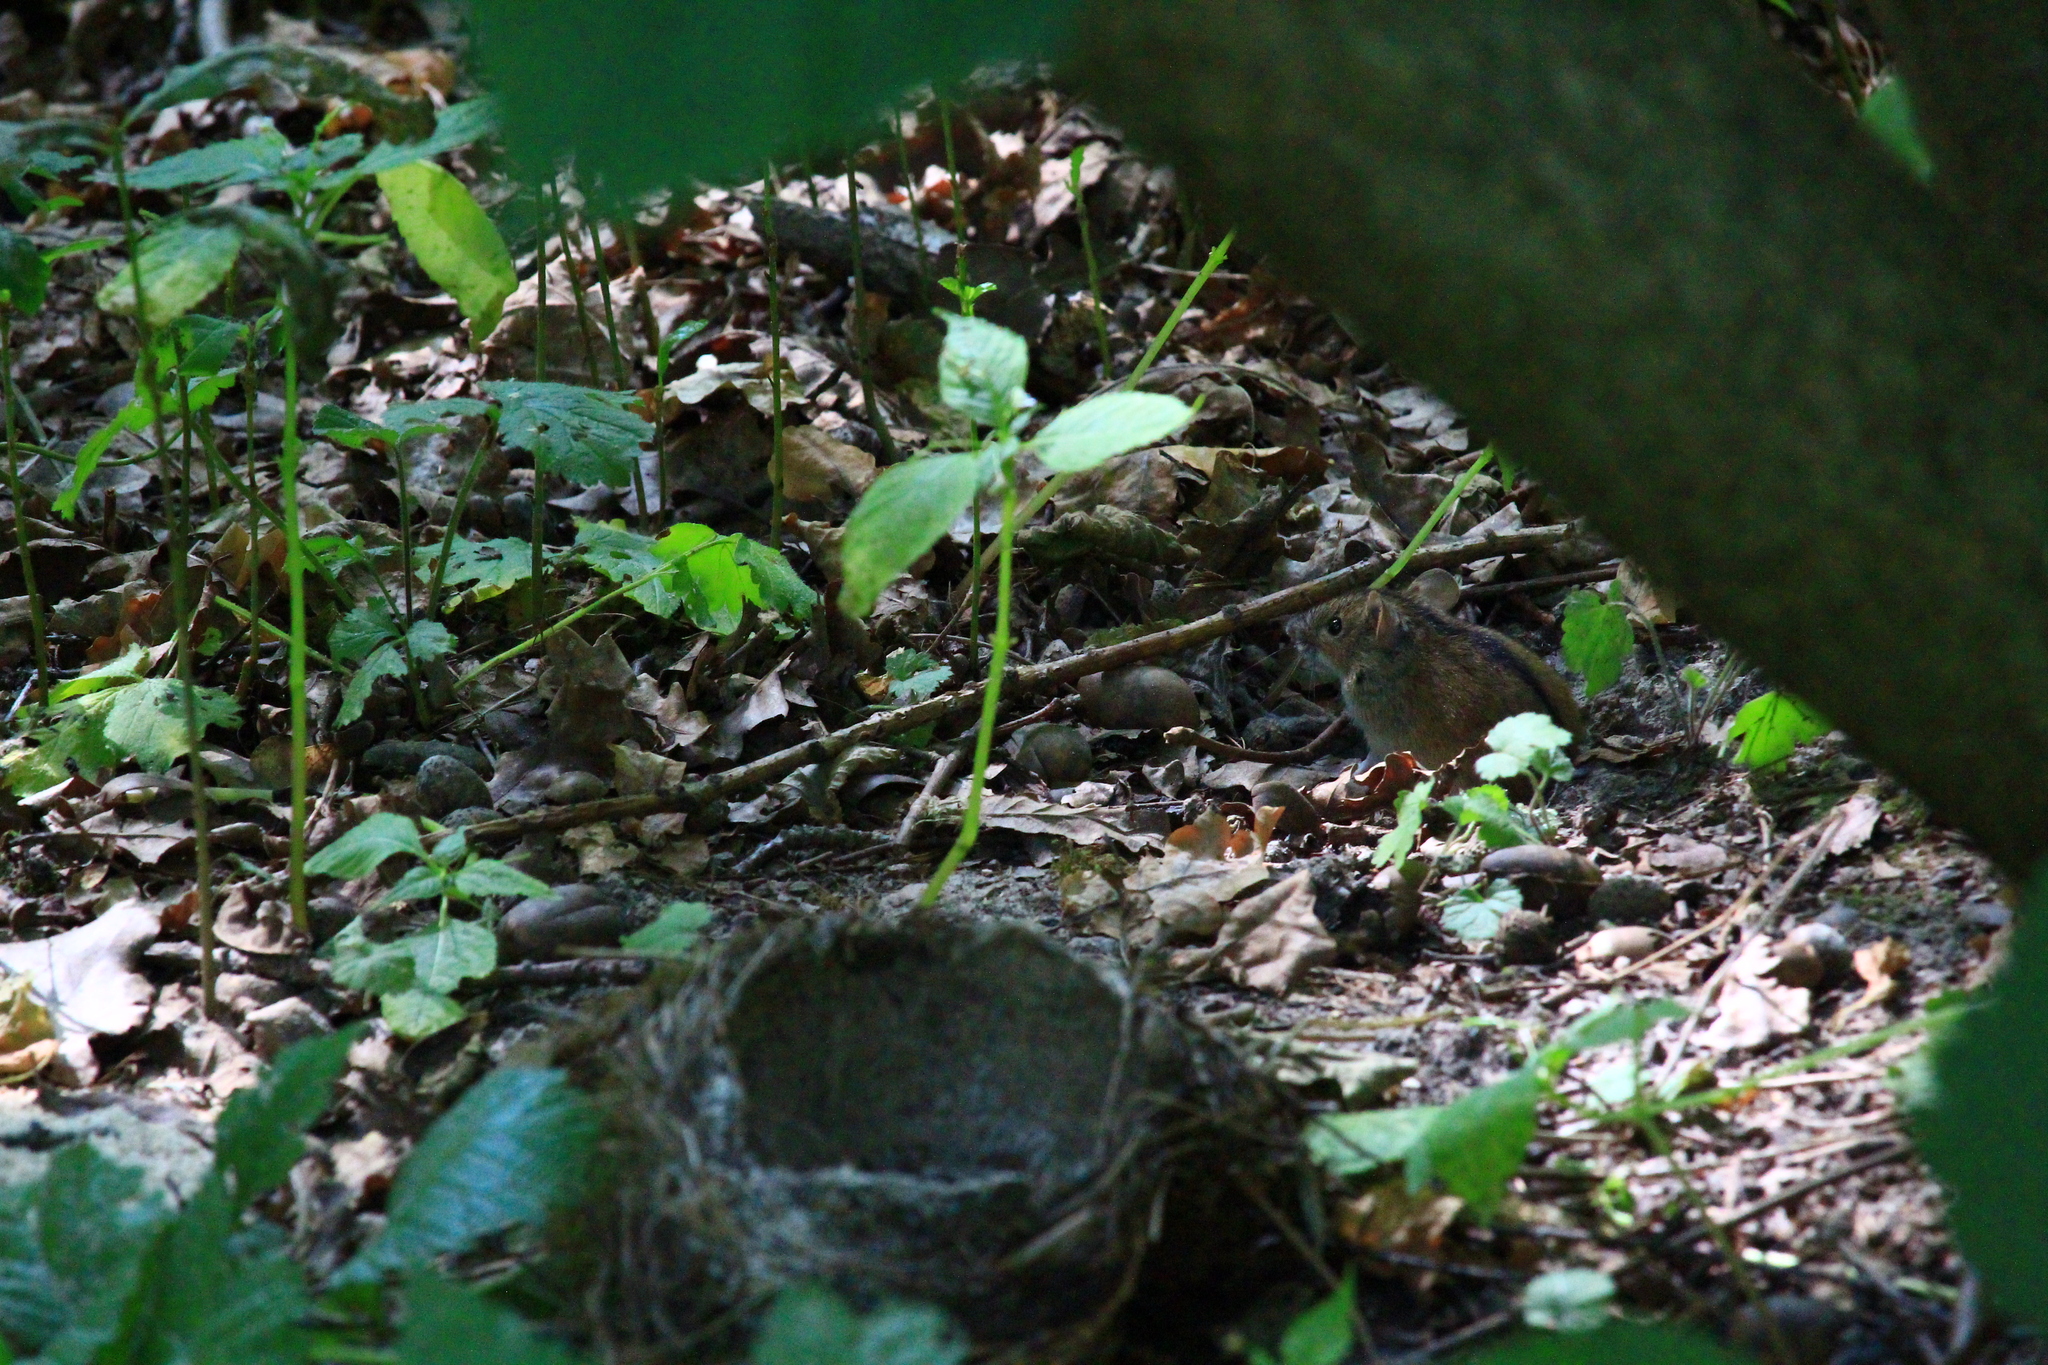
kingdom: Animalia
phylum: Chordata
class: Mammalia
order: Rodentia
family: Muridae
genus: Apodemus
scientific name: Apodemus agrarius
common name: Striped field mouse
